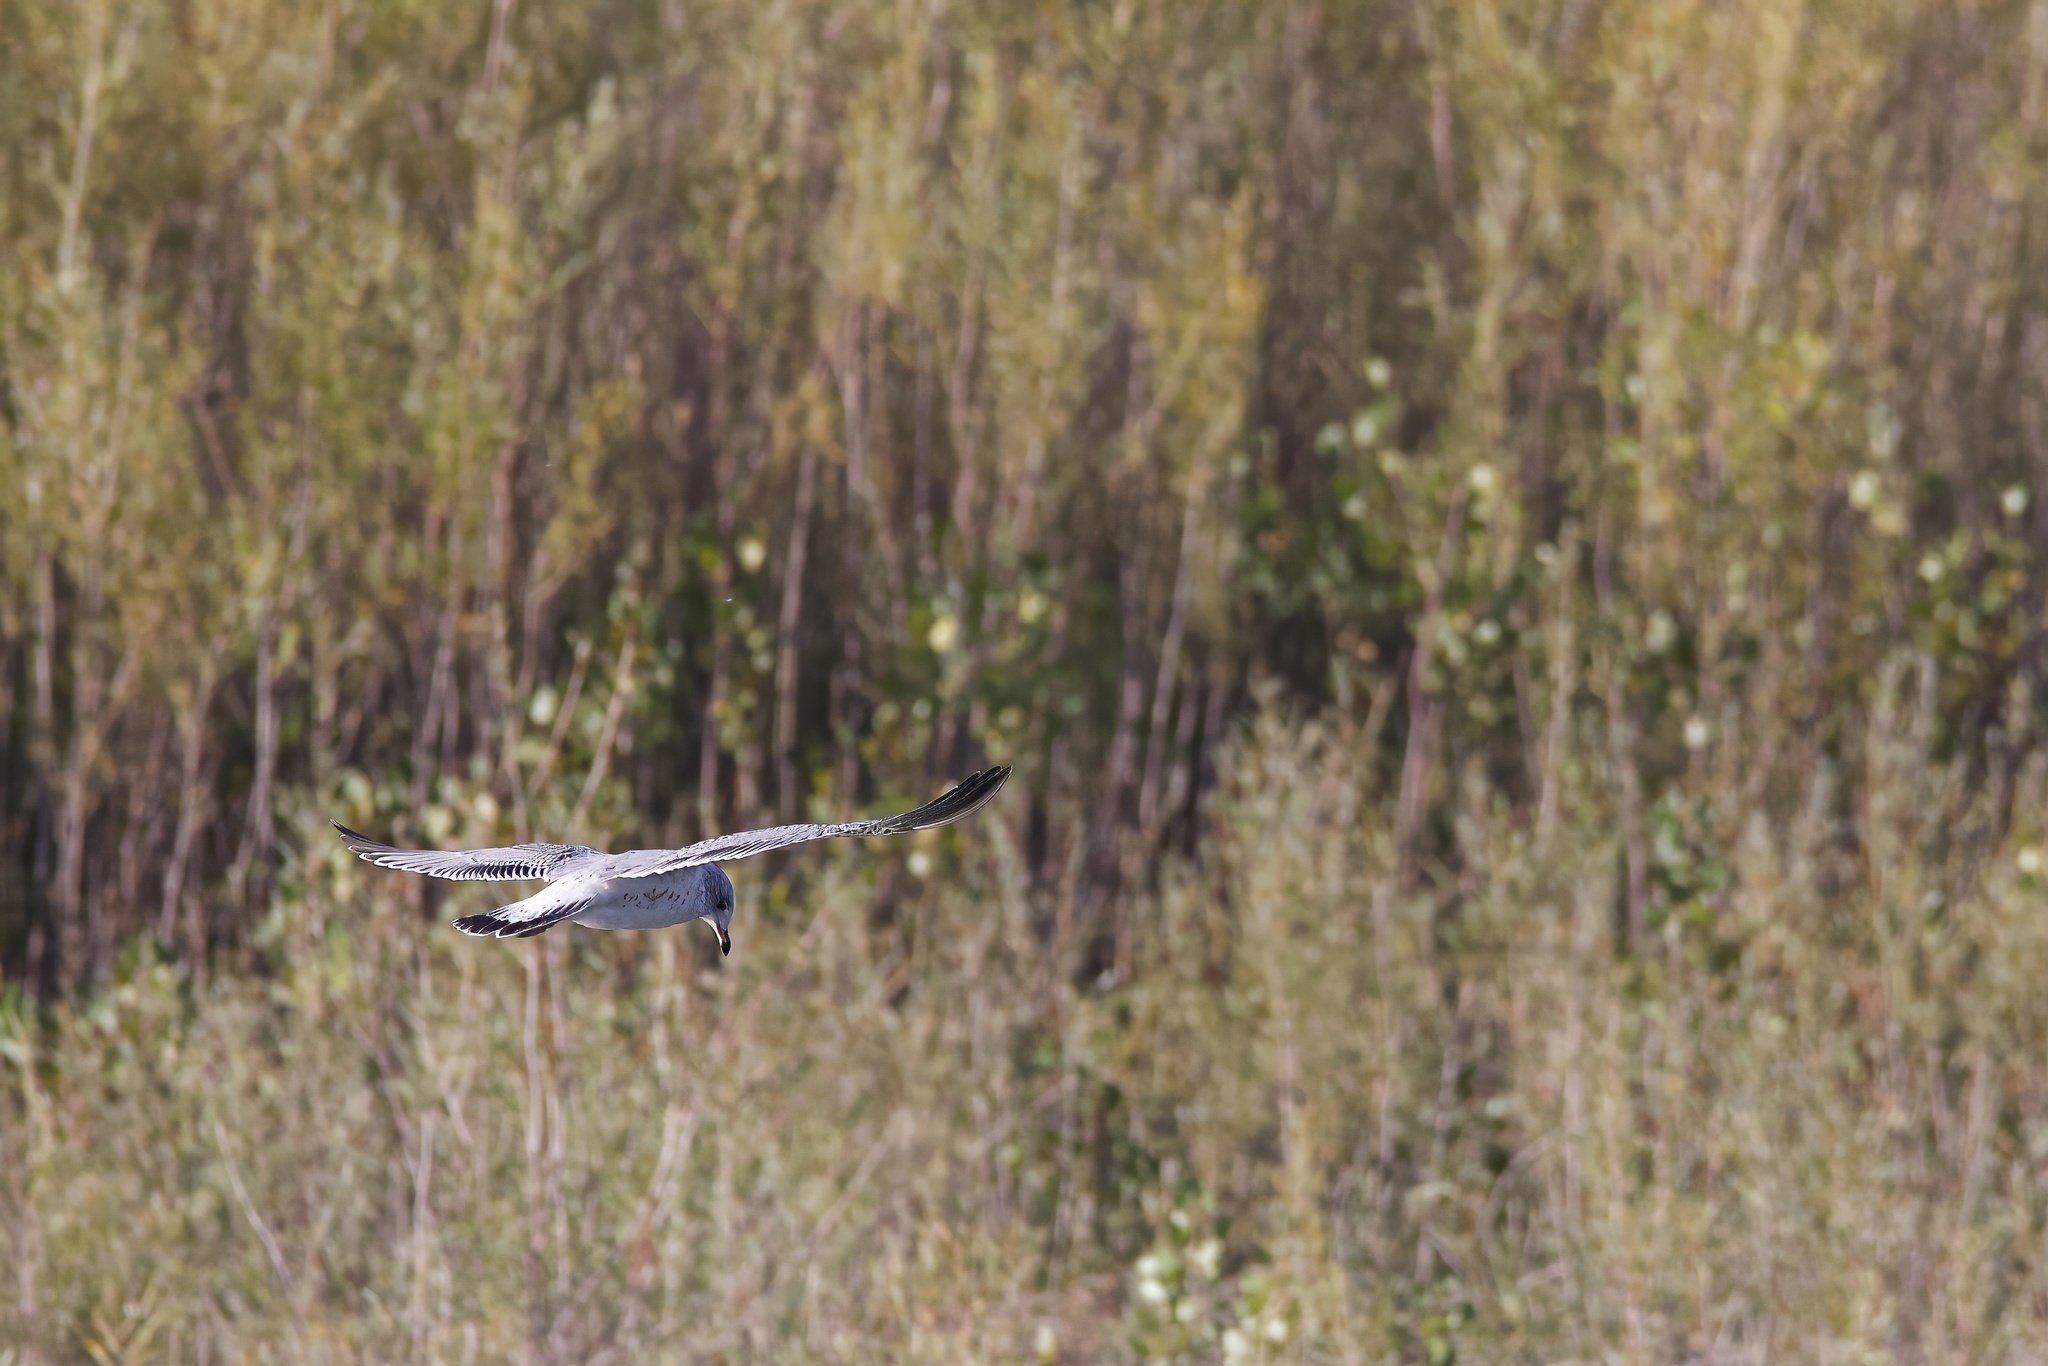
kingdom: Animalia
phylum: Chordata
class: Aves
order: Charadriiformes
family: Laridae
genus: Larus
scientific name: Larus delawarensis
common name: Ring-billed gull
